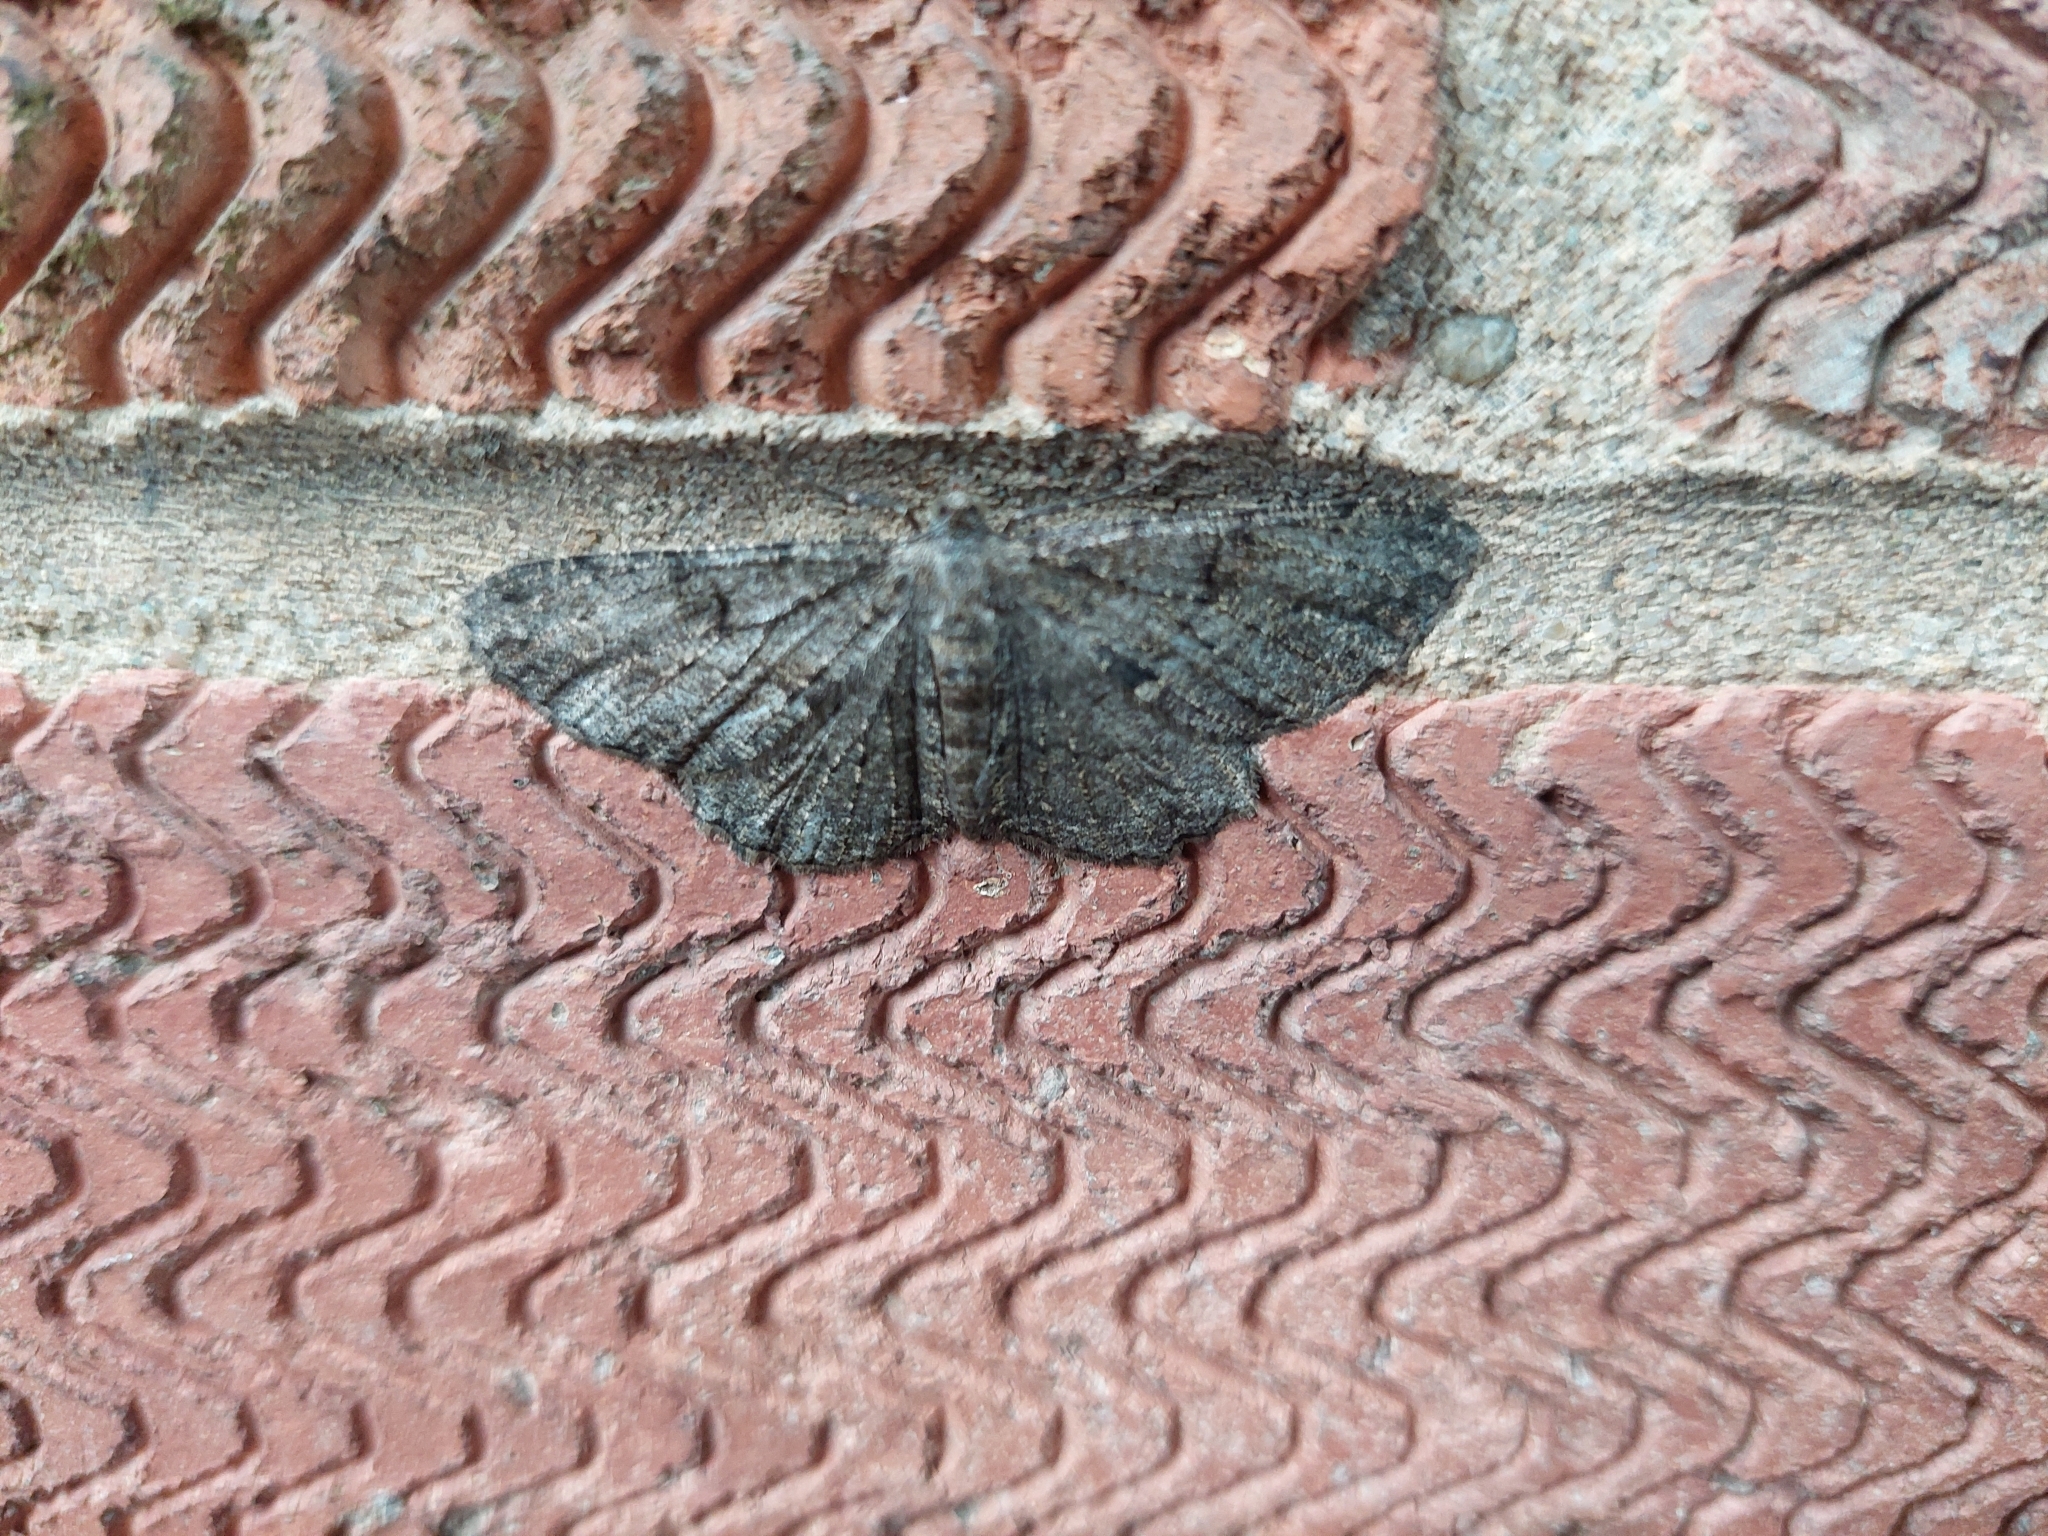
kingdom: Animalia
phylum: Arthropoda
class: Insecta
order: Lepidoptera
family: Geometridae
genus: Peribatodes
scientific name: Peribatodes rhomboidaria
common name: Willow beauty
